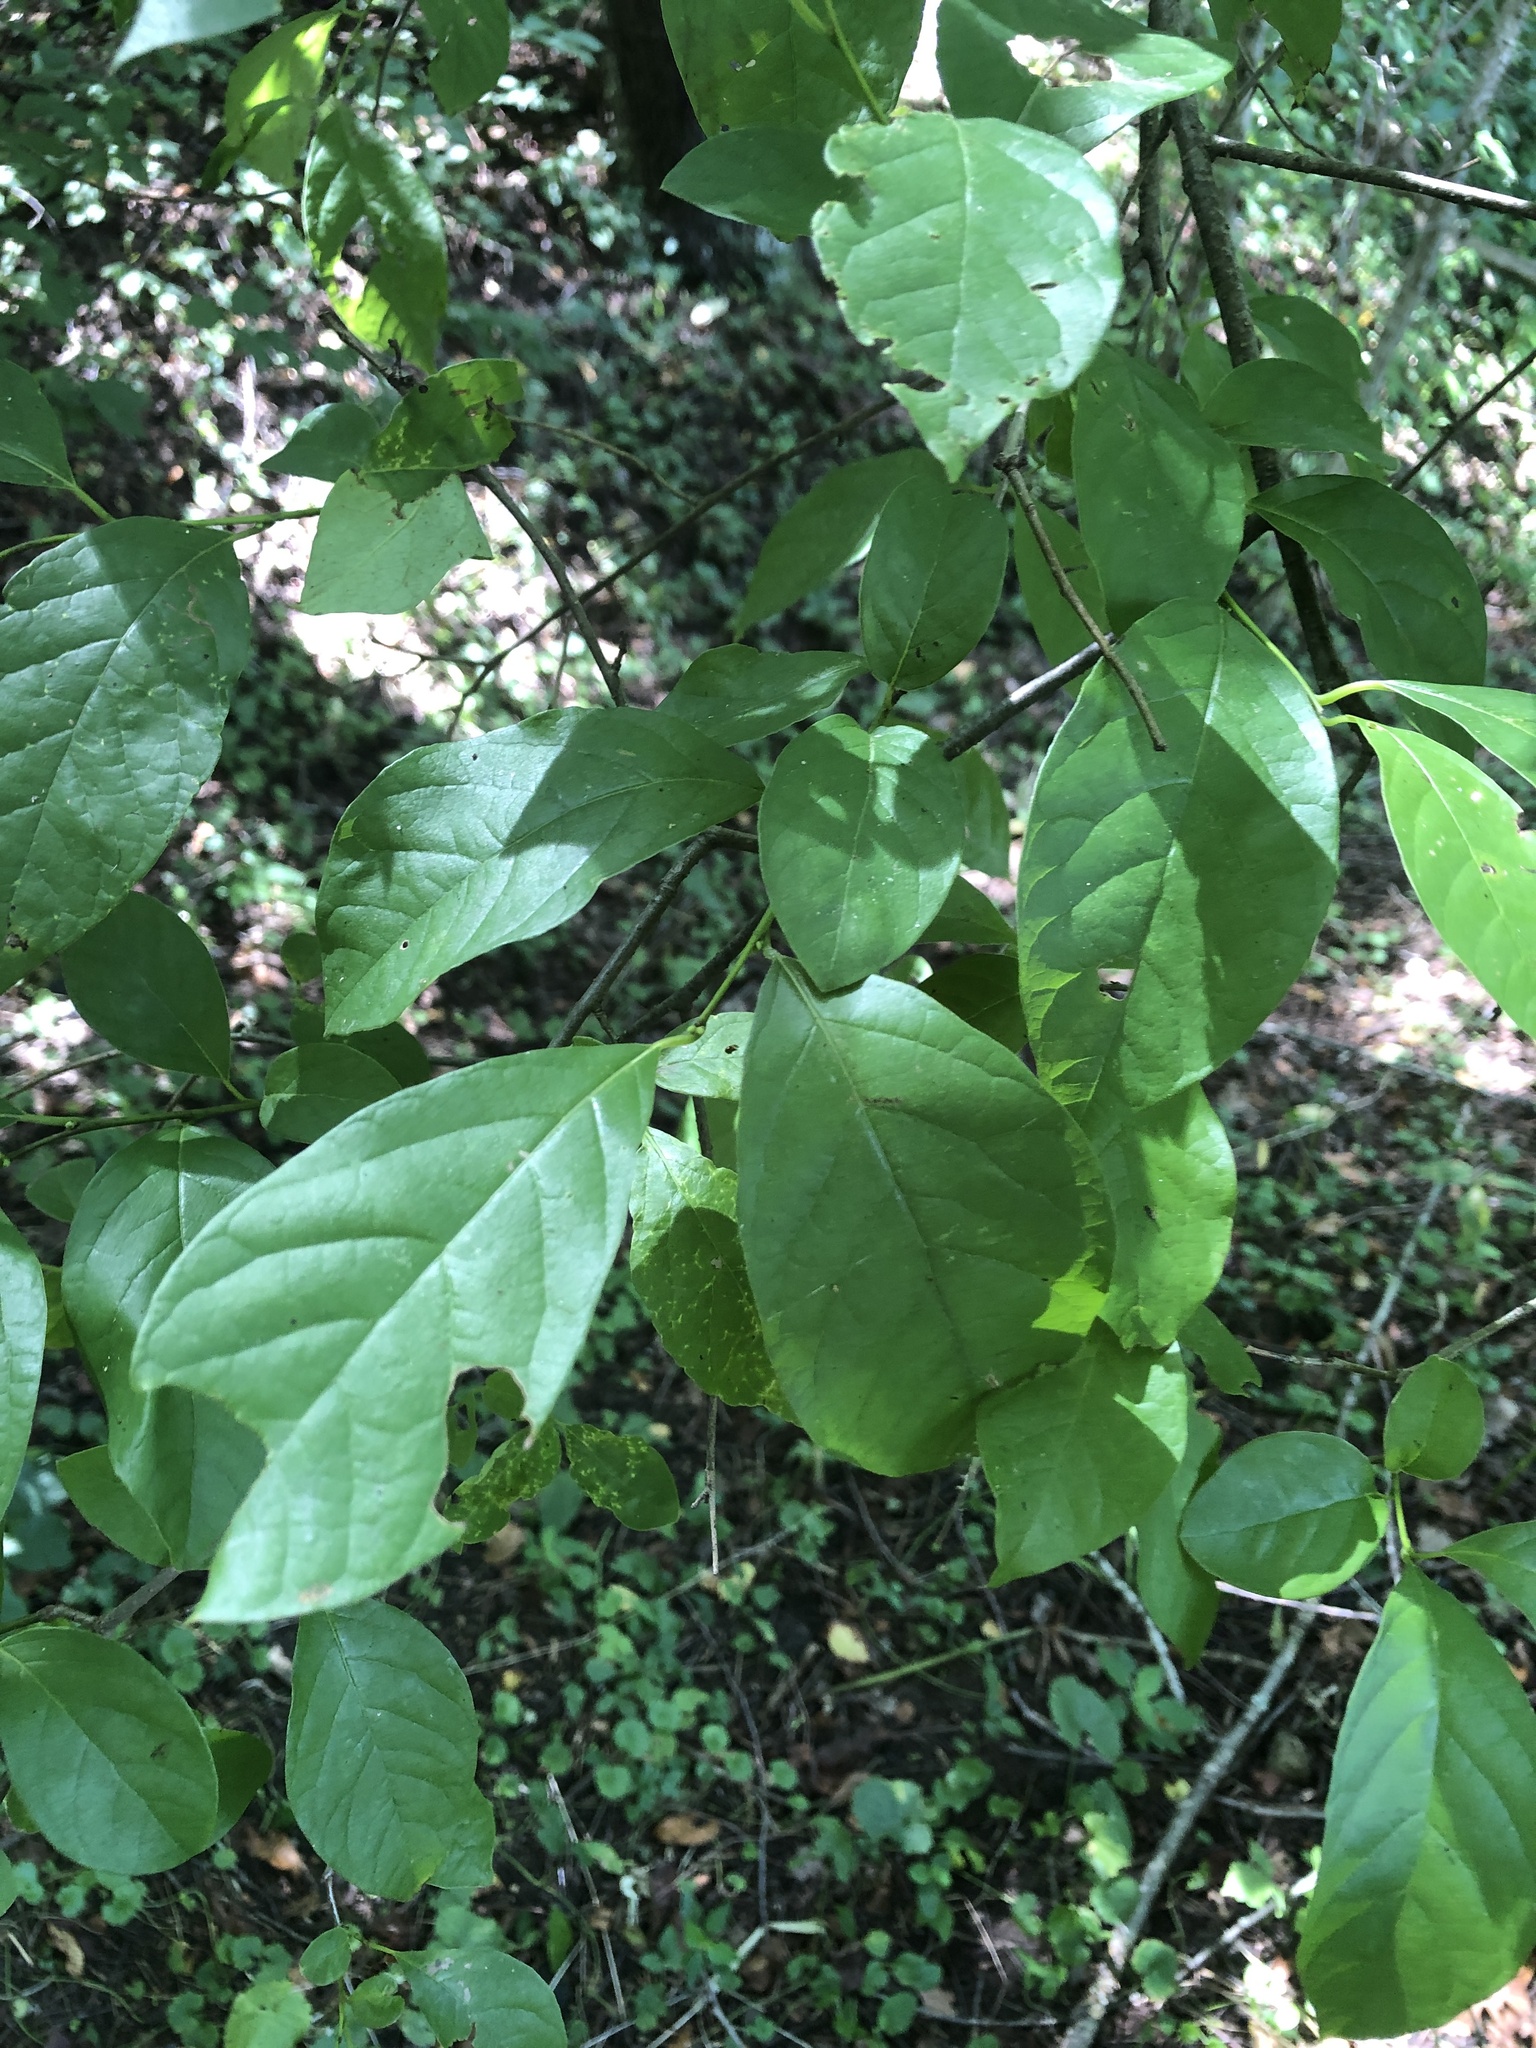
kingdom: Plantae
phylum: Tracheophyta
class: Magnoliopsida
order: Laurales
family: Lauraceae
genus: Lindera
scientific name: Lindera benzoin
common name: Spicebush
